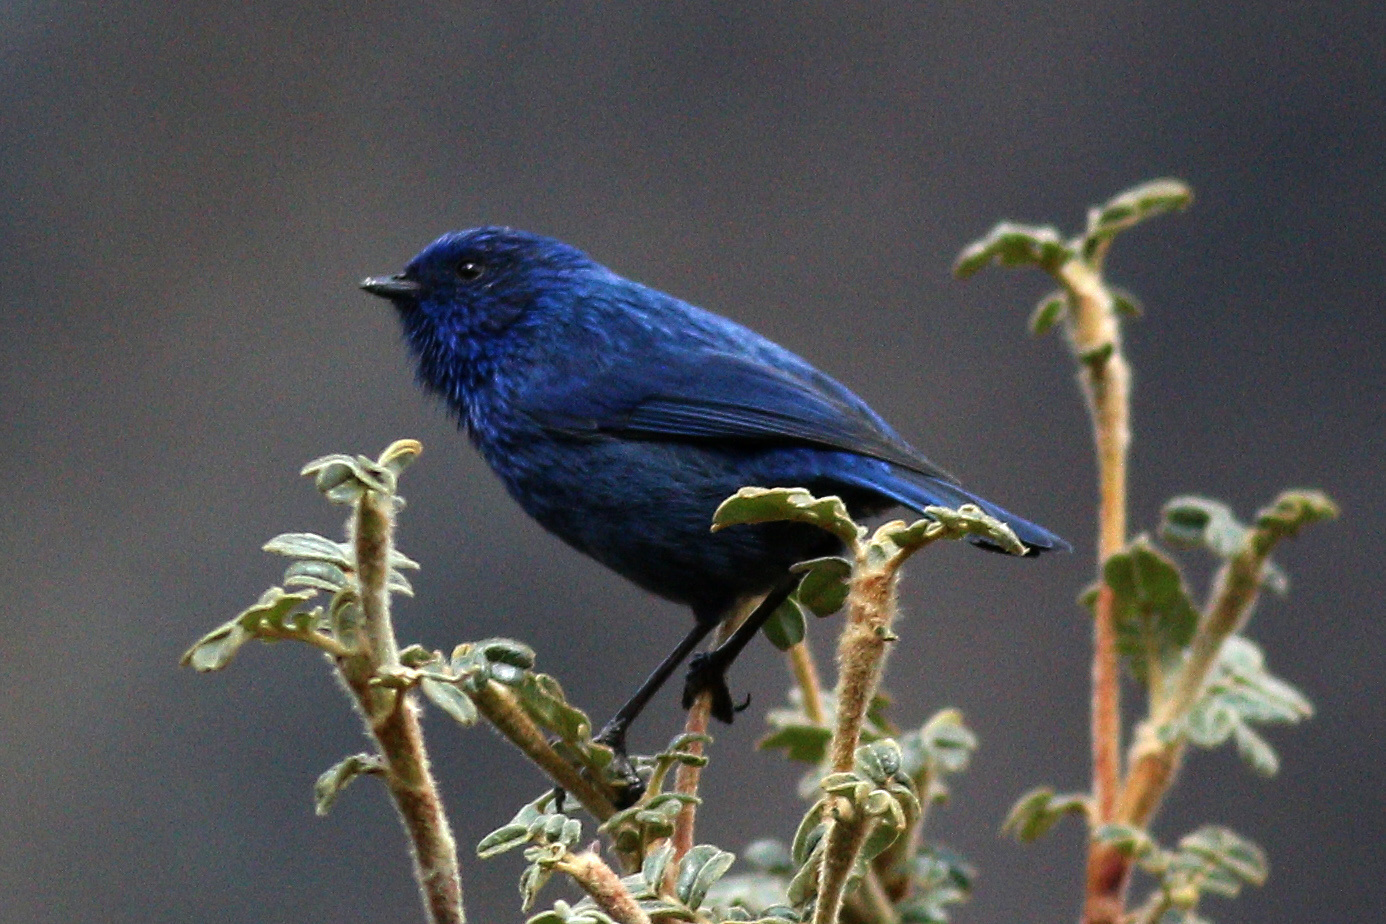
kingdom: Animalia
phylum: Chordata
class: Aves
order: Passeriformes
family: Thraupidae
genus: Xenodacnis
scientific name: Xenodacnis parina
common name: Tit-like dacnis
